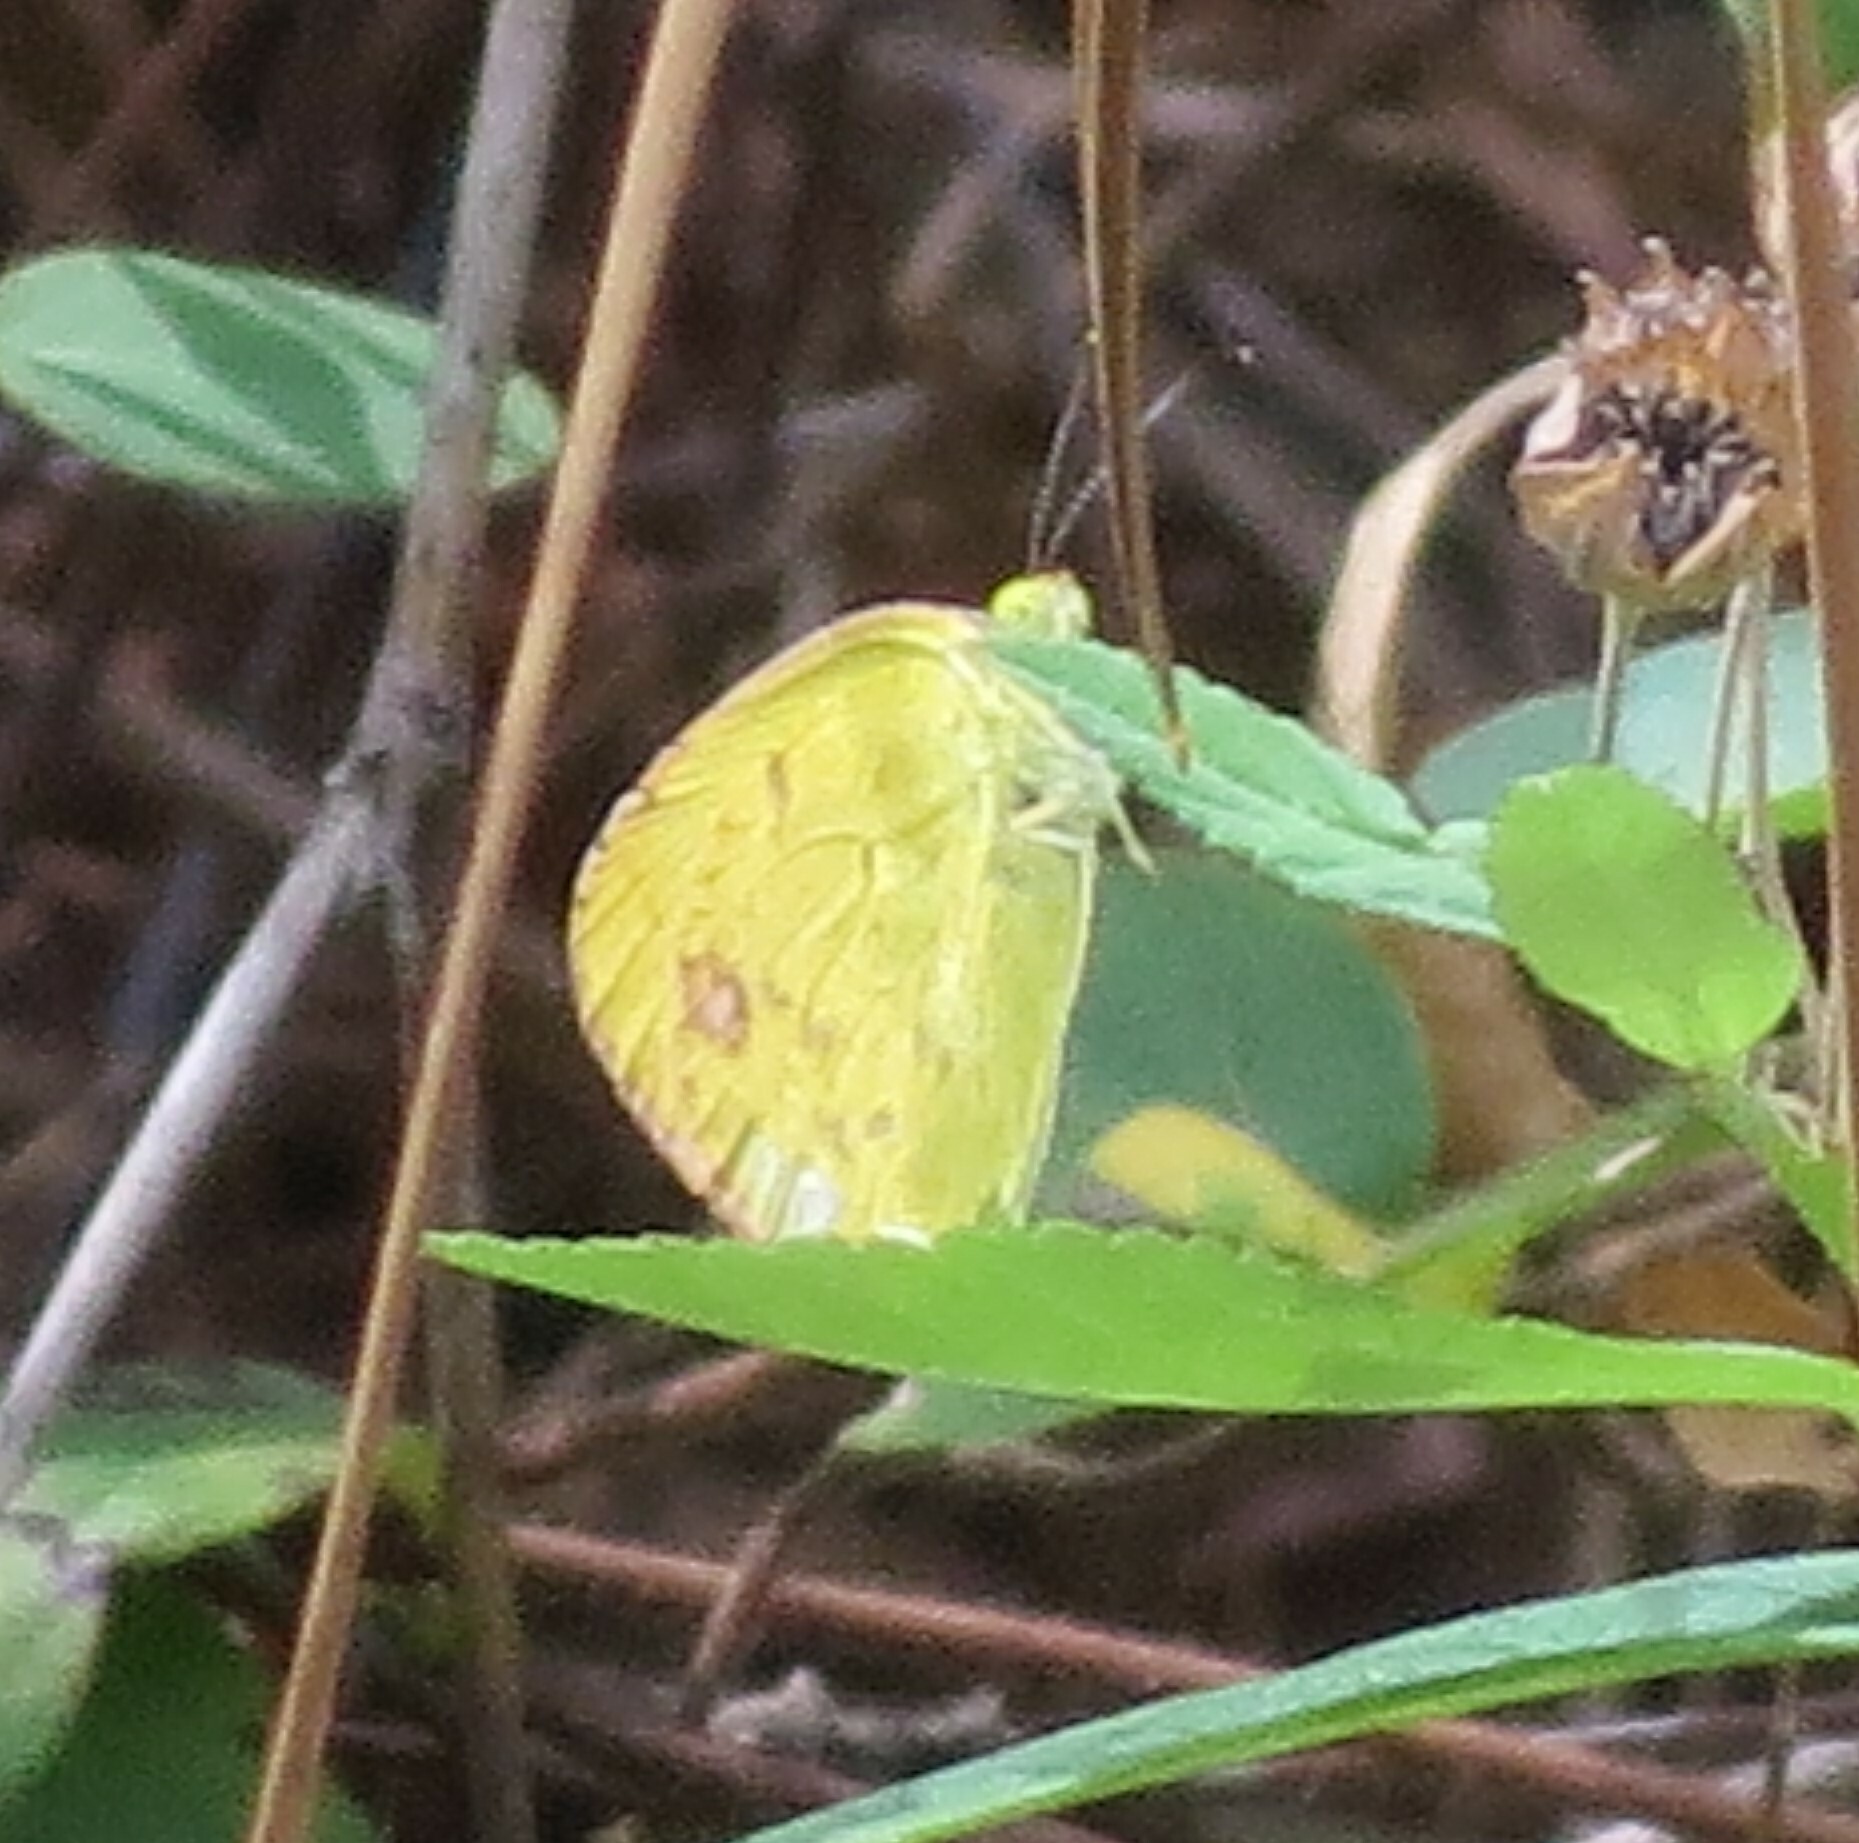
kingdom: Animalia
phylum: Arthropoda
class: Insecta
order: Lepidoptera
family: Pieridae
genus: Pyrisitia
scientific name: Pyrisitia lisa
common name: Little yellow
